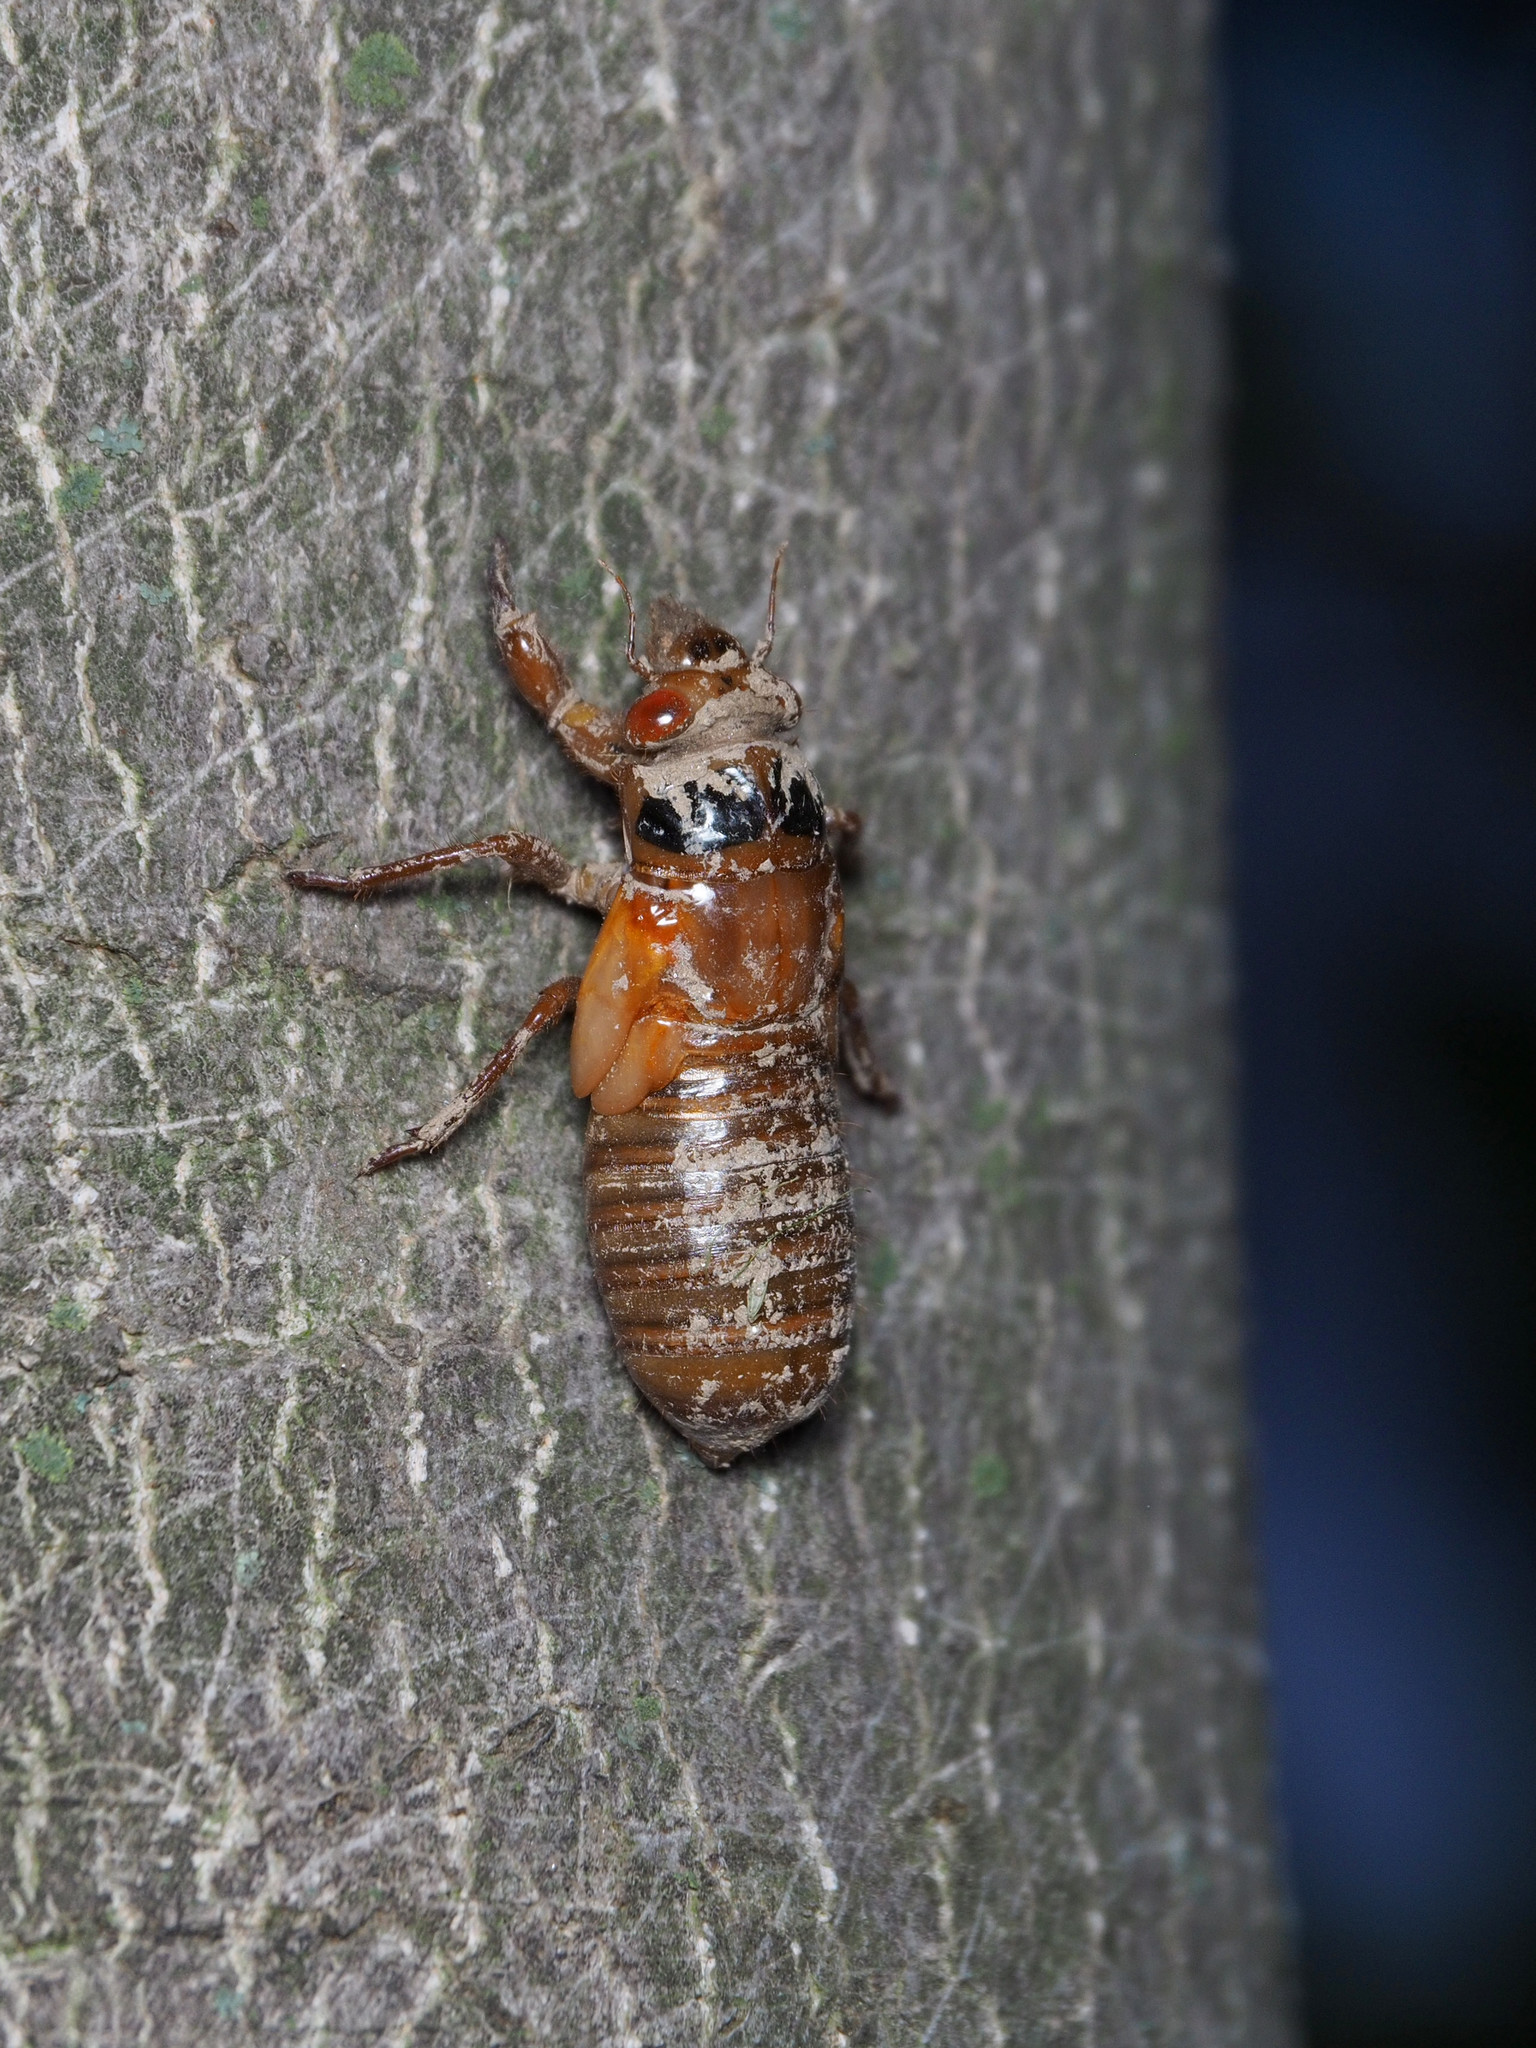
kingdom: Animalia
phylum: Arthropoda
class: Insecta
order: Hemiptera
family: Cicadidae
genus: Magicicada
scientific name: Magicicada
